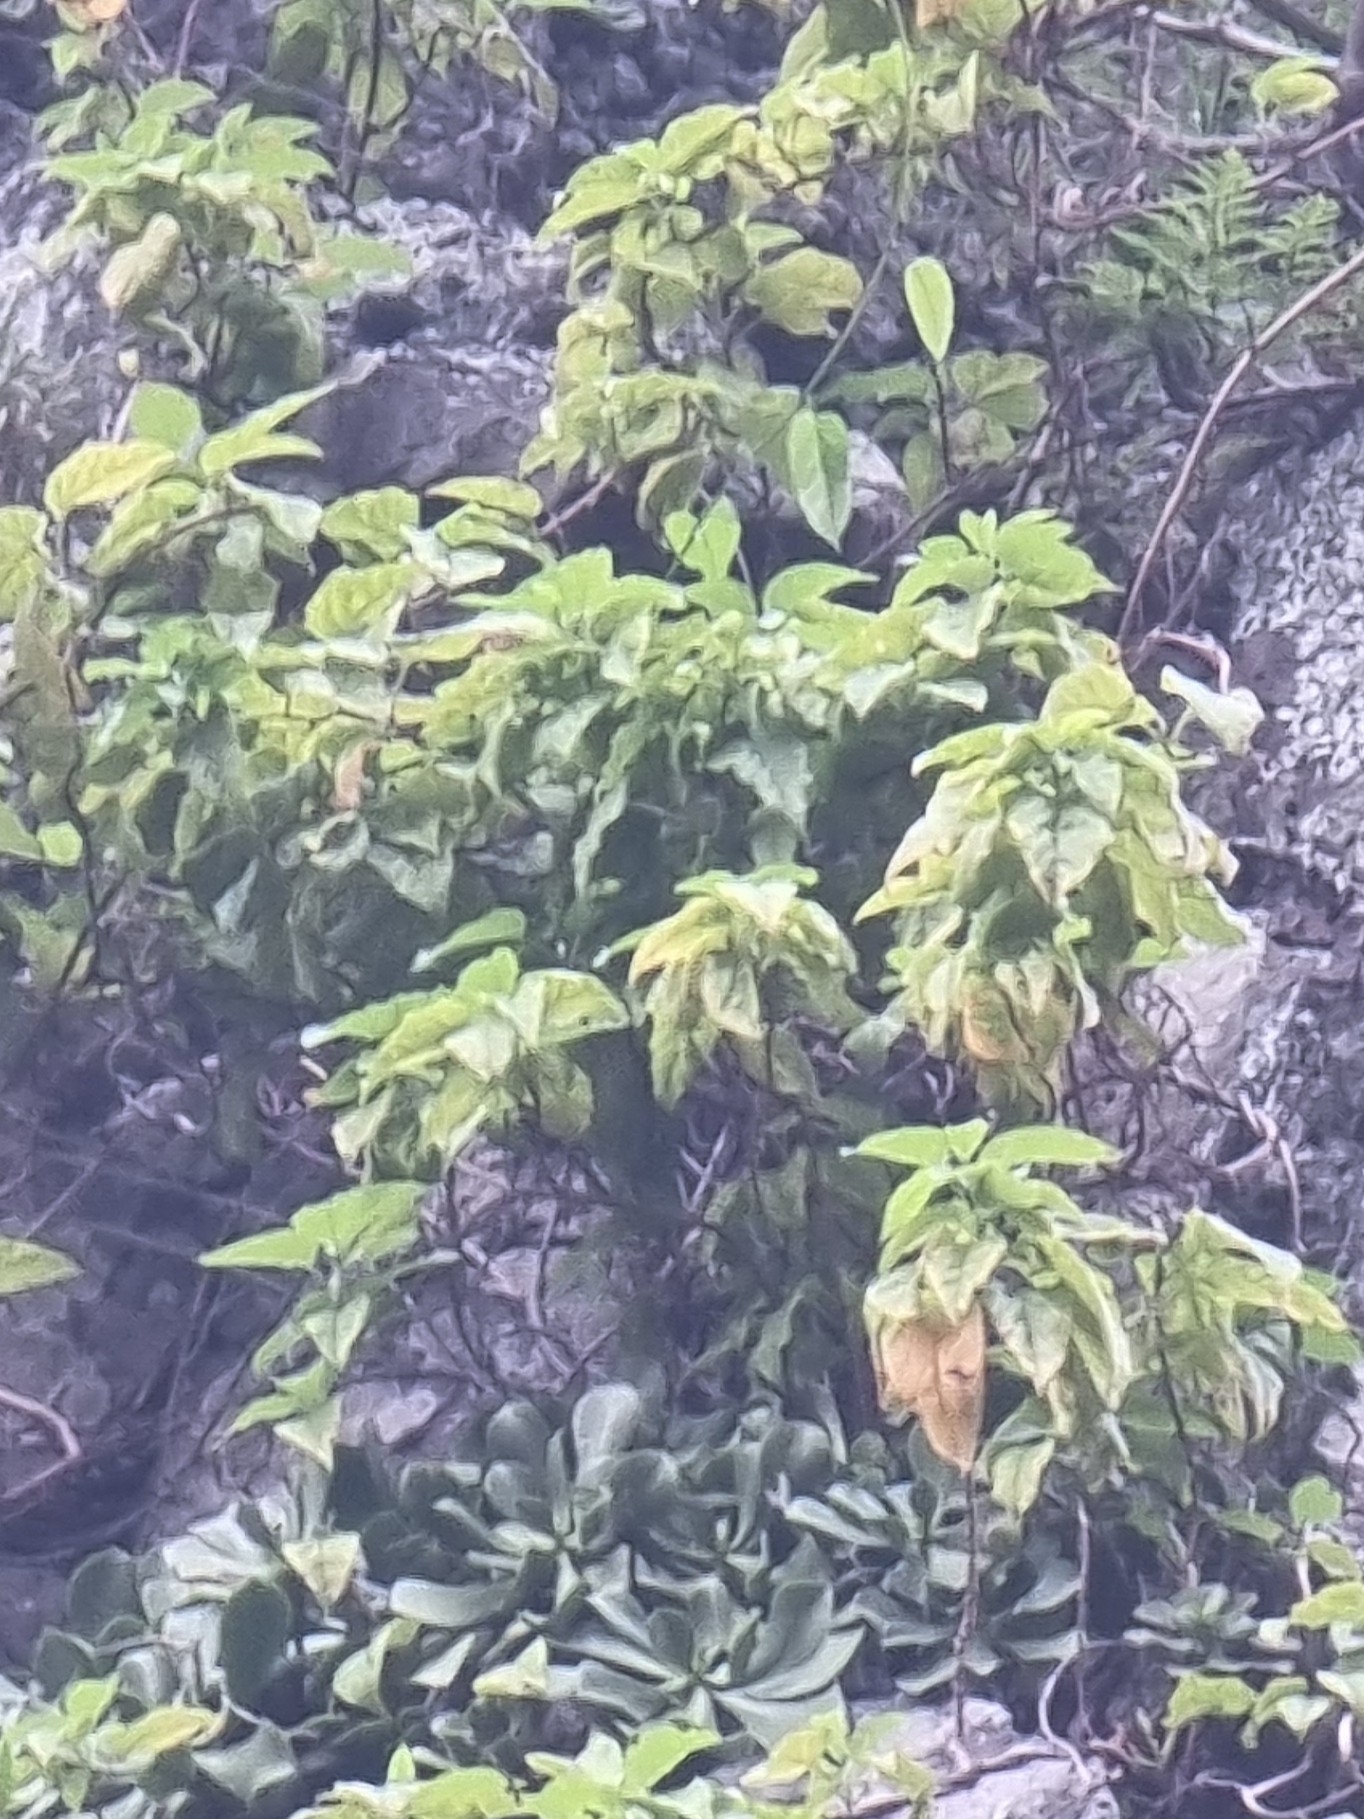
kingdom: Plantae
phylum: Tracheophyta
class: Magnoliopsida
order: Solanales
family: Convolvulaceae
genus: Convolvulus
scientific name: Convolvulus massonii
